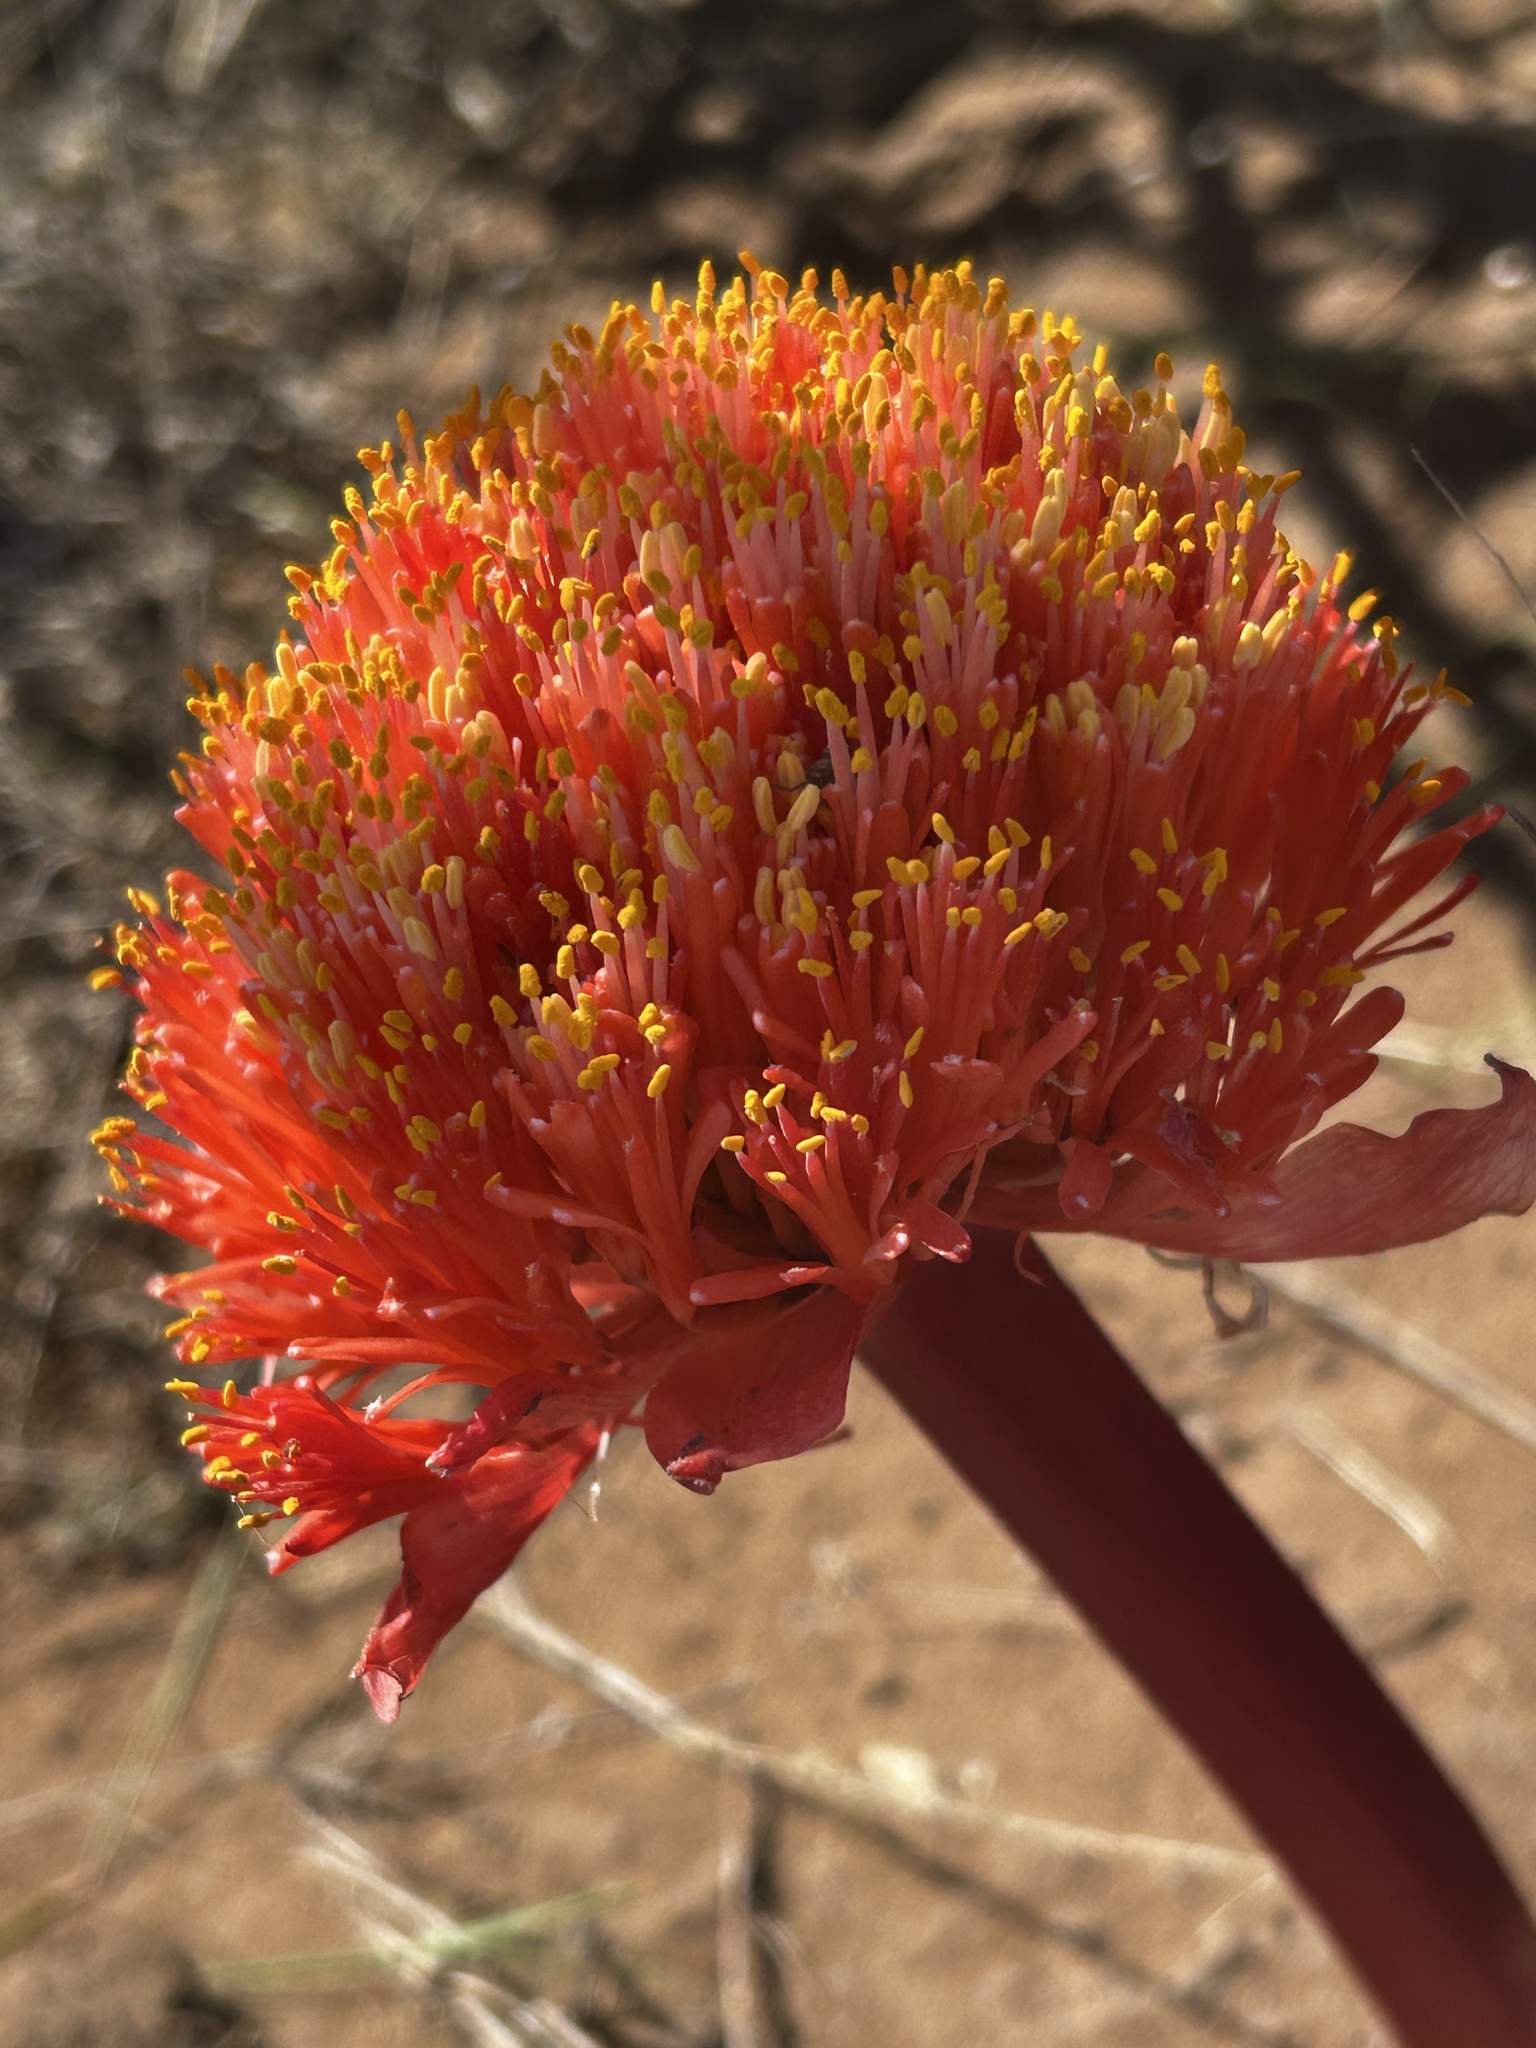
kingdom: Plantae
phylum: Tracheophyta
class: Liliopsida
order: Asparagales
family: Amaryllidaceae
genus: Haemanthus
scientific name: Haemanthus sanguineus
